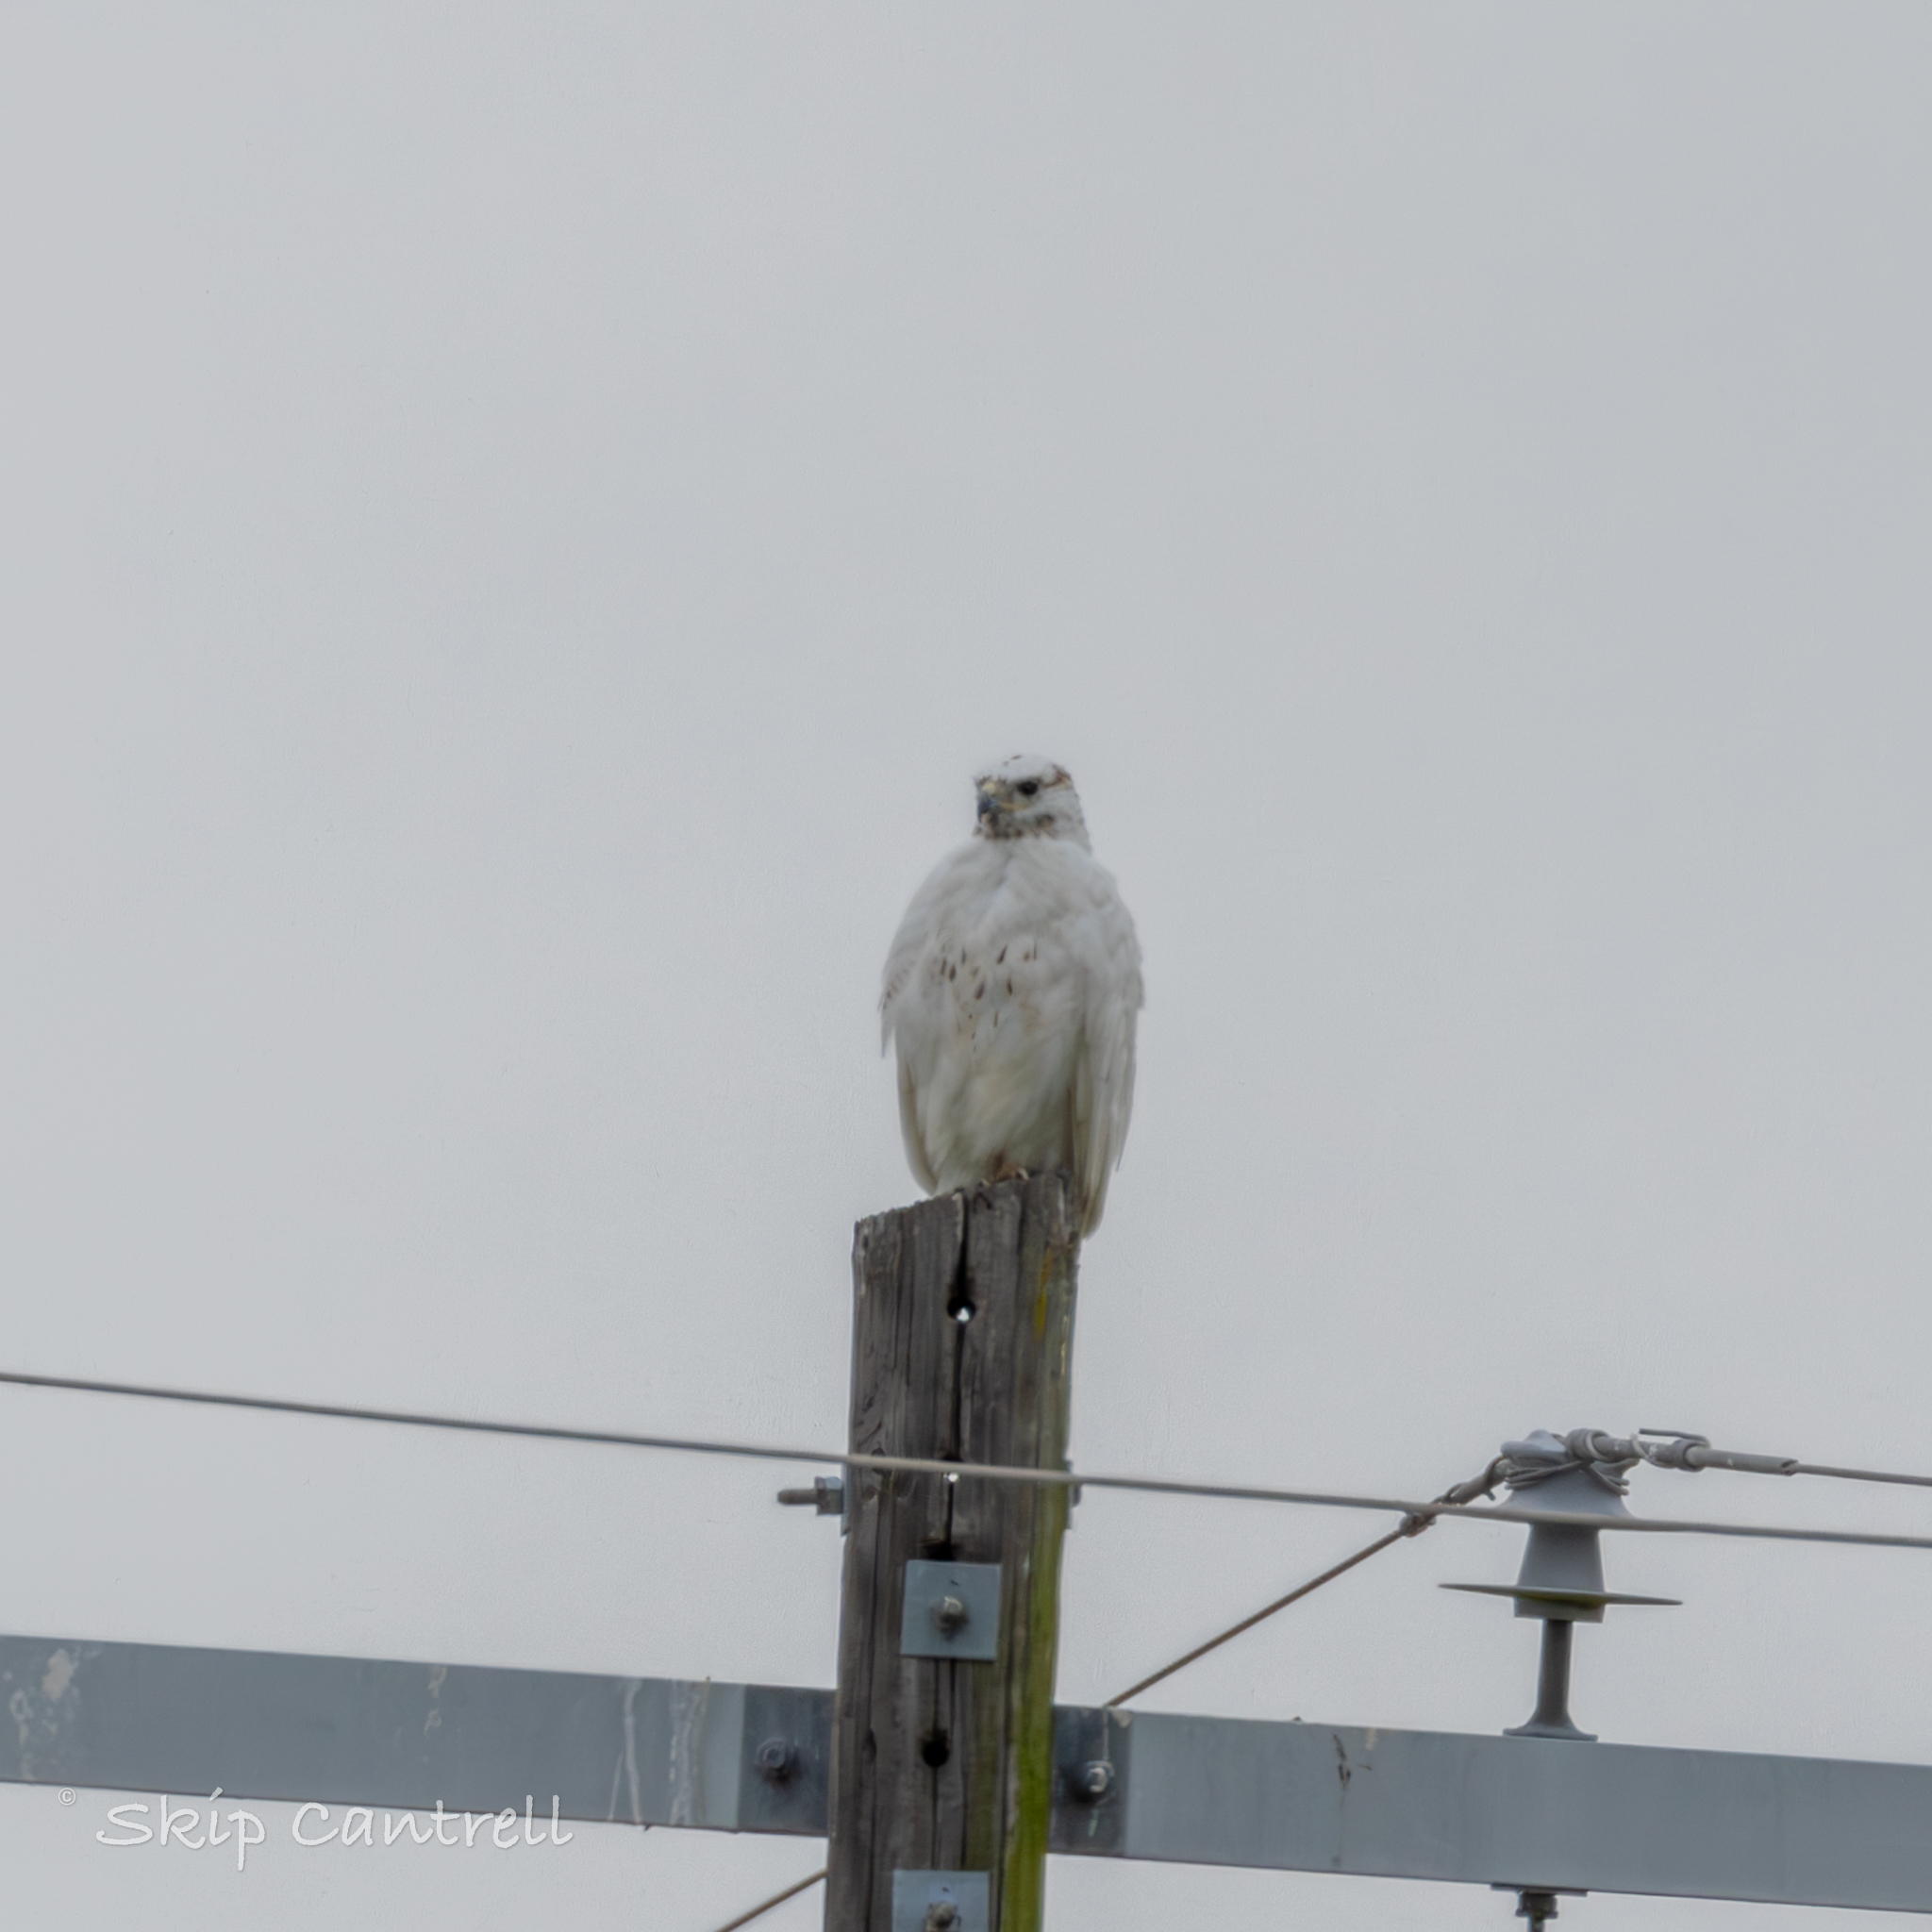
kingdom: Animalia
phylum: Chordata
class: Aves
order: Accipitriformes
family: Accipitridae
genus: Buteo
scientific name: Buteo jamaicensis
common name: Red-tailed hawk
